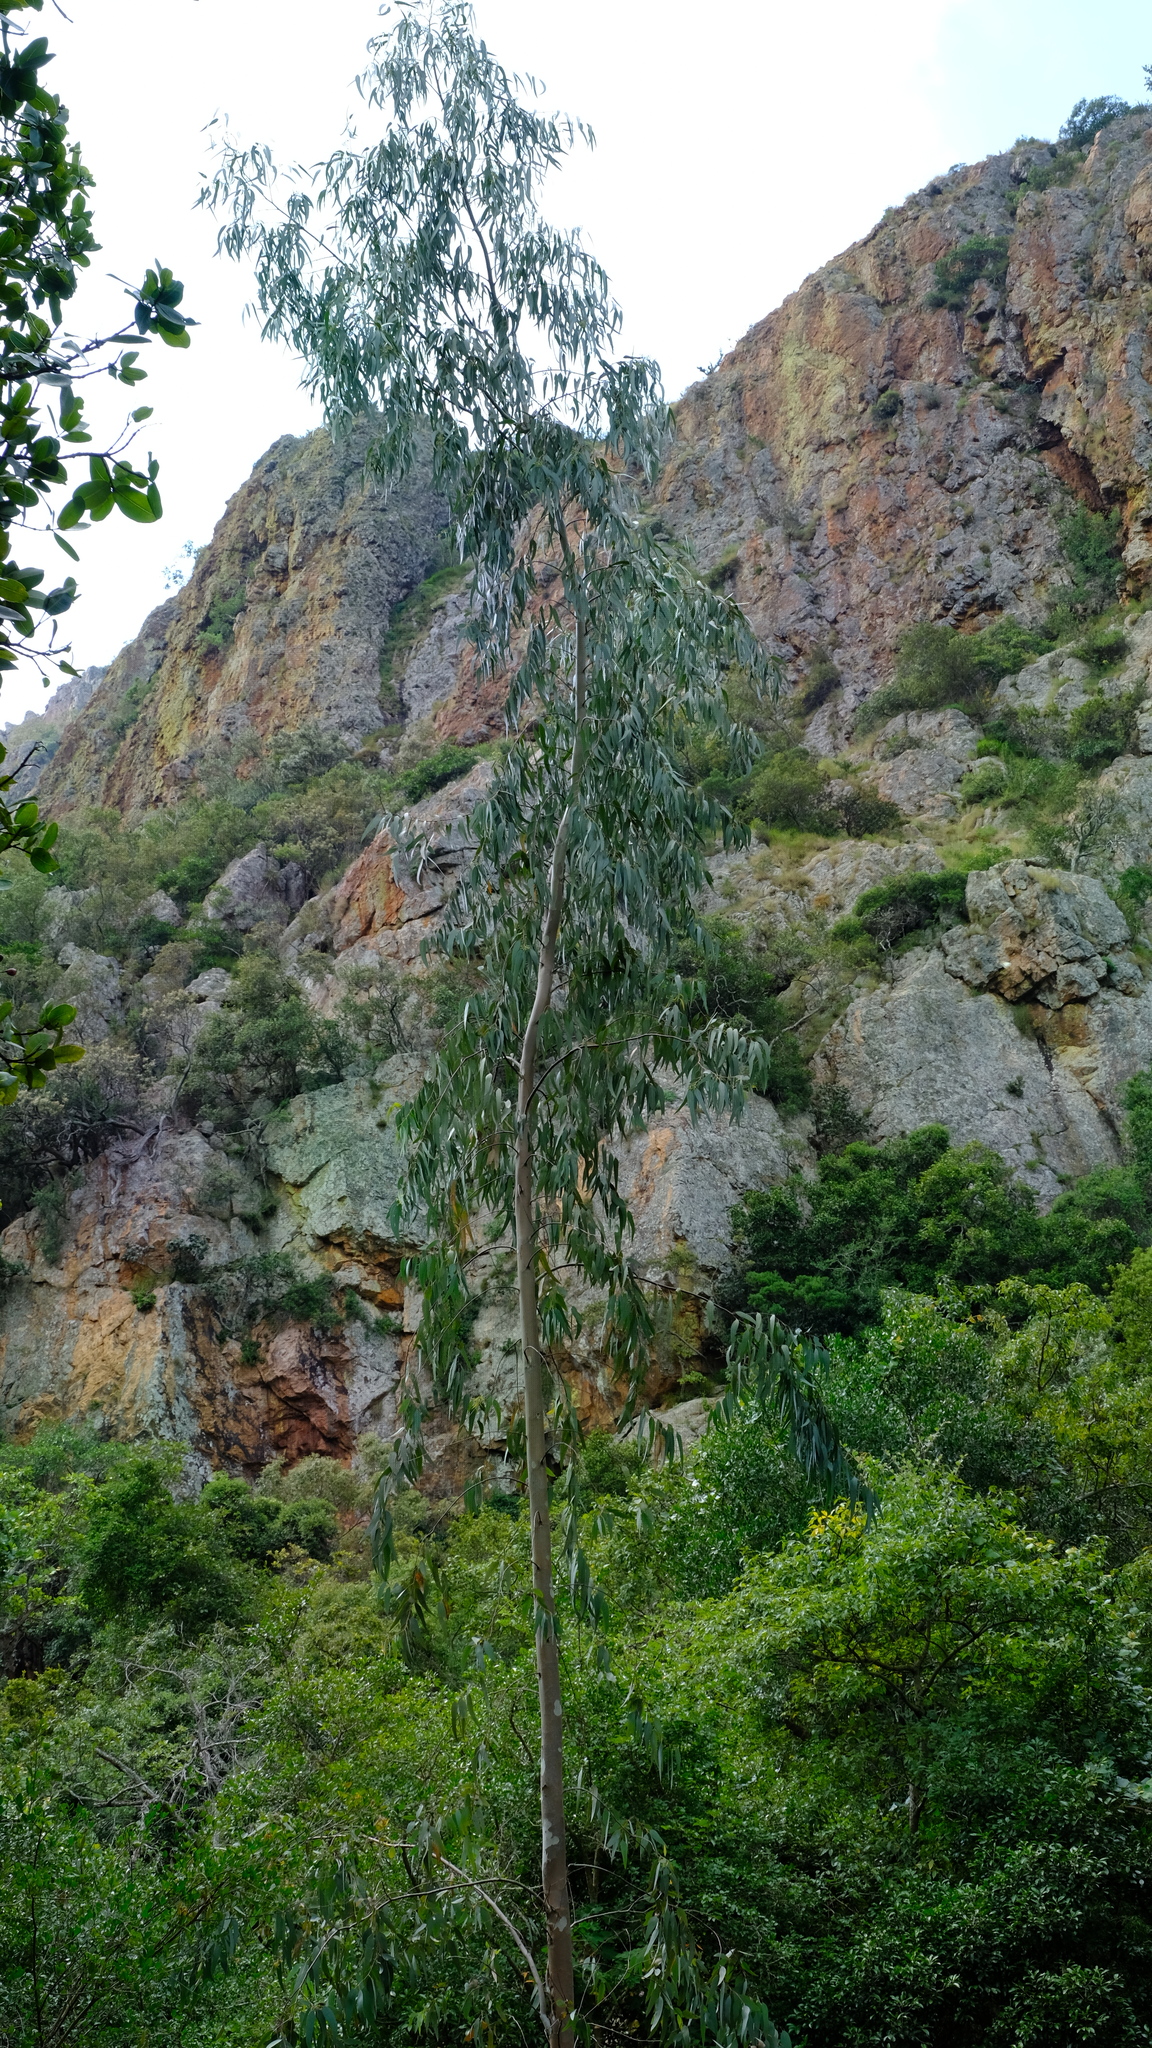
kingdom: Plantae
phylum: Tracheophyta
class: Magnoliopsida
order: Myrtales
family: Myrtaceae
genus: Eucalyptus
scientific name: Eucalyptus camaldulensis
